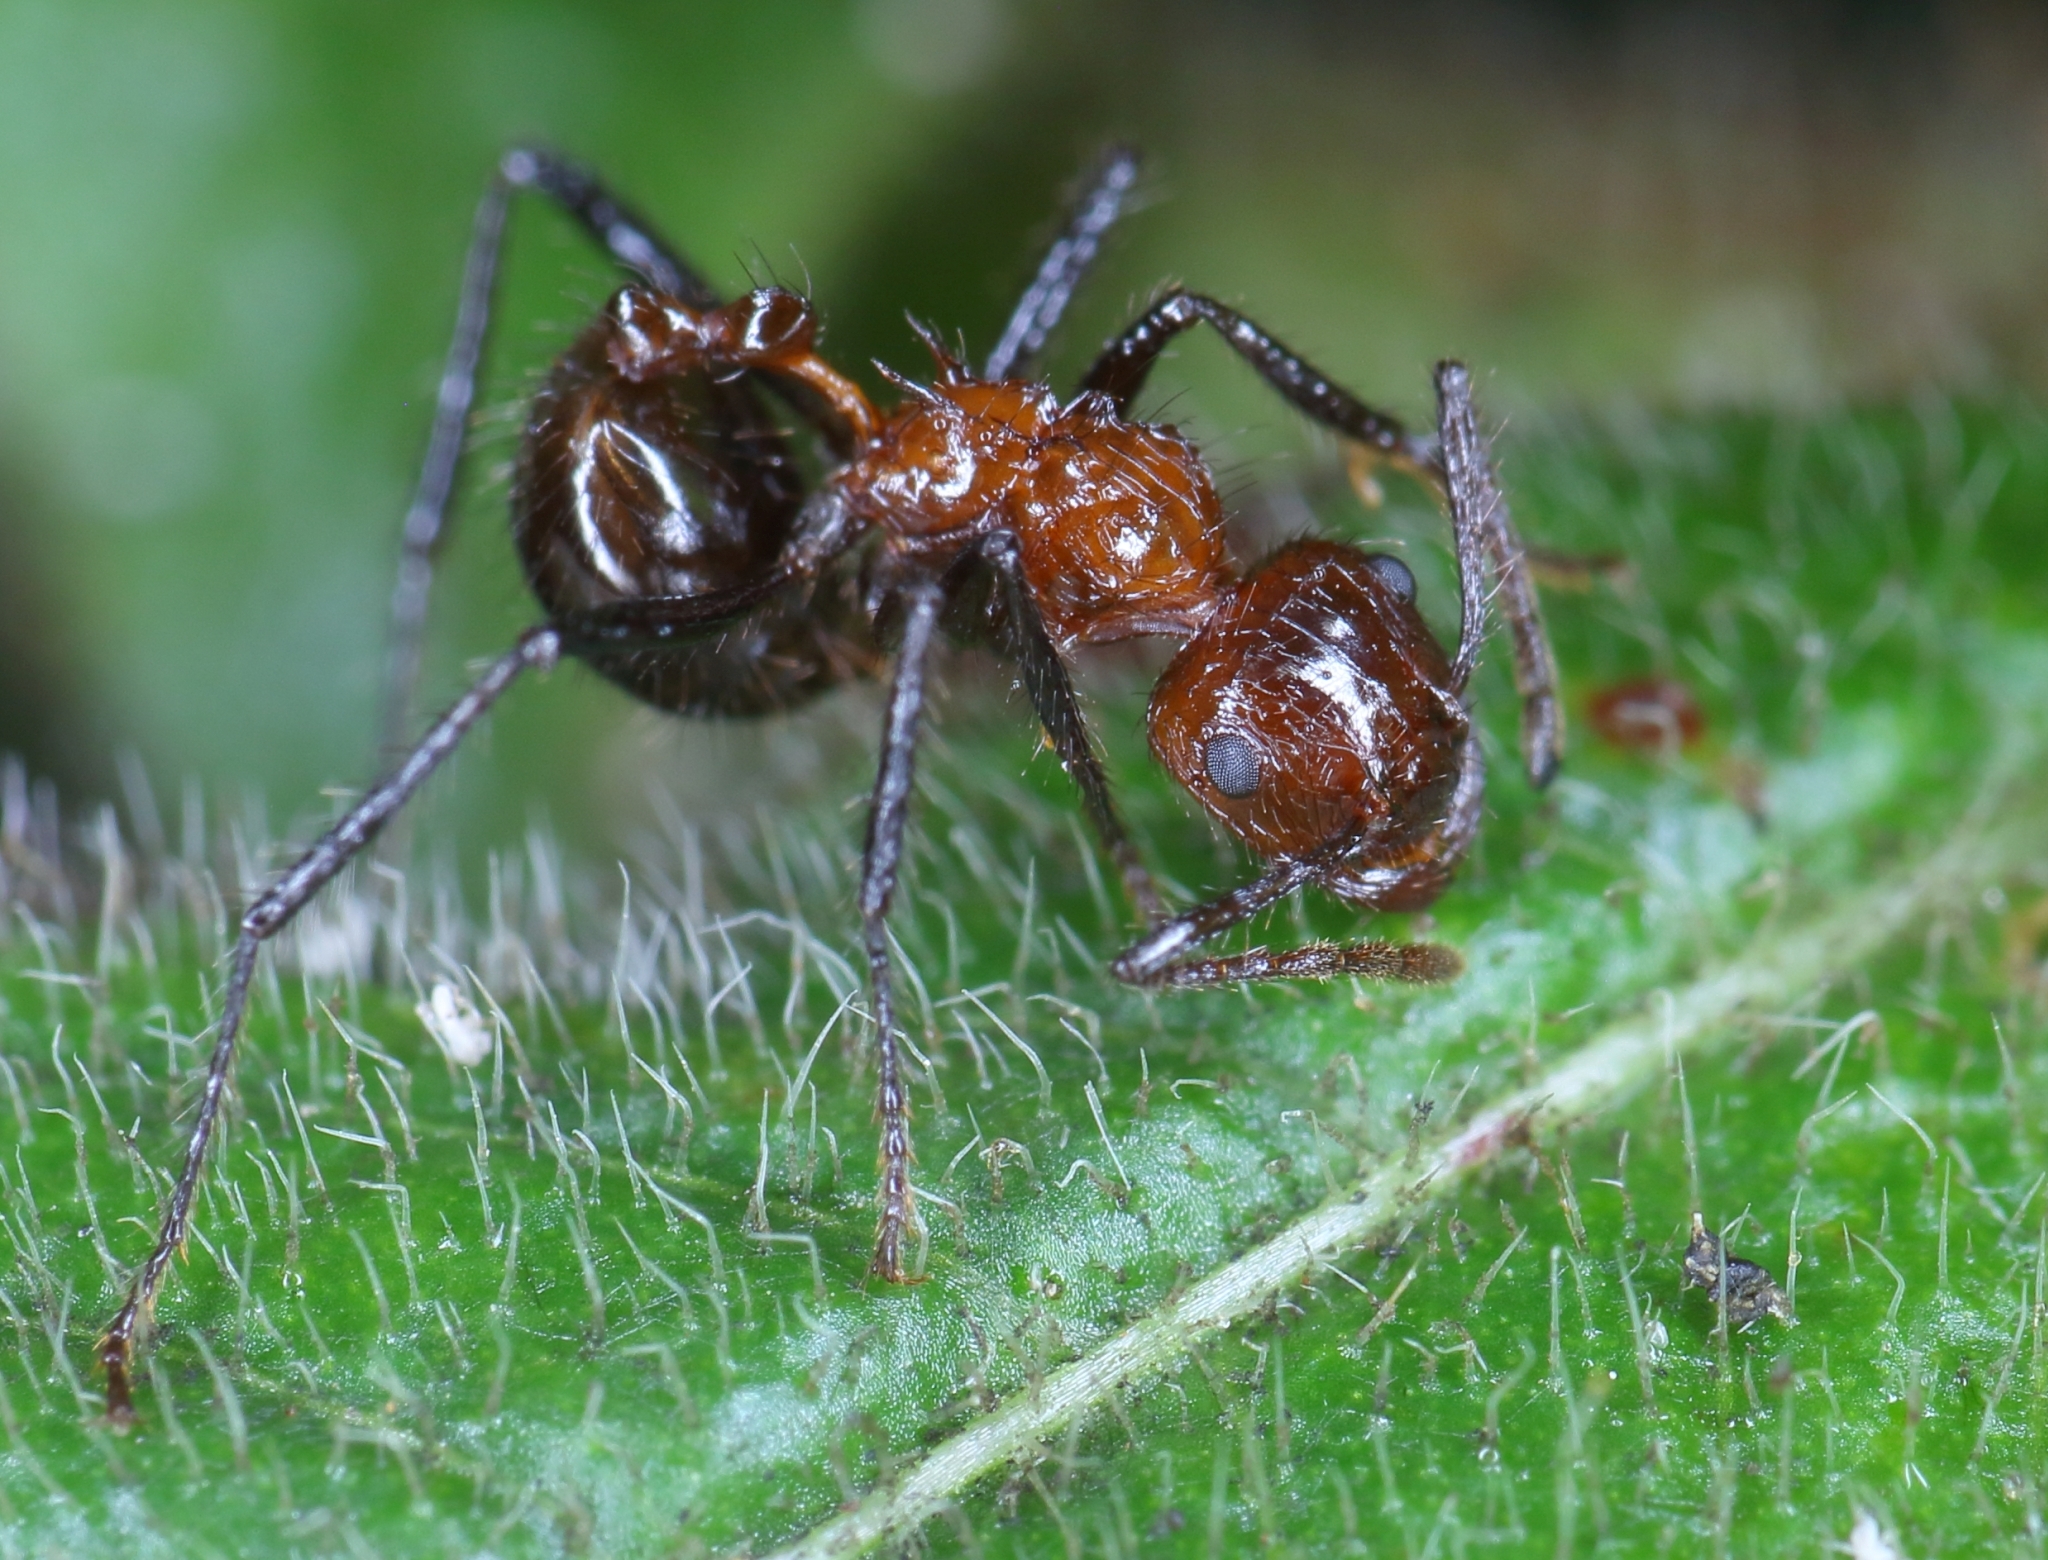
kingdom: Animalia
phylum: Arthropoda
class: Insecta
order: Hymenoptera
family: Formicidae
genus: Myrmicaria
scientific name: Myrmicaria natalensis
